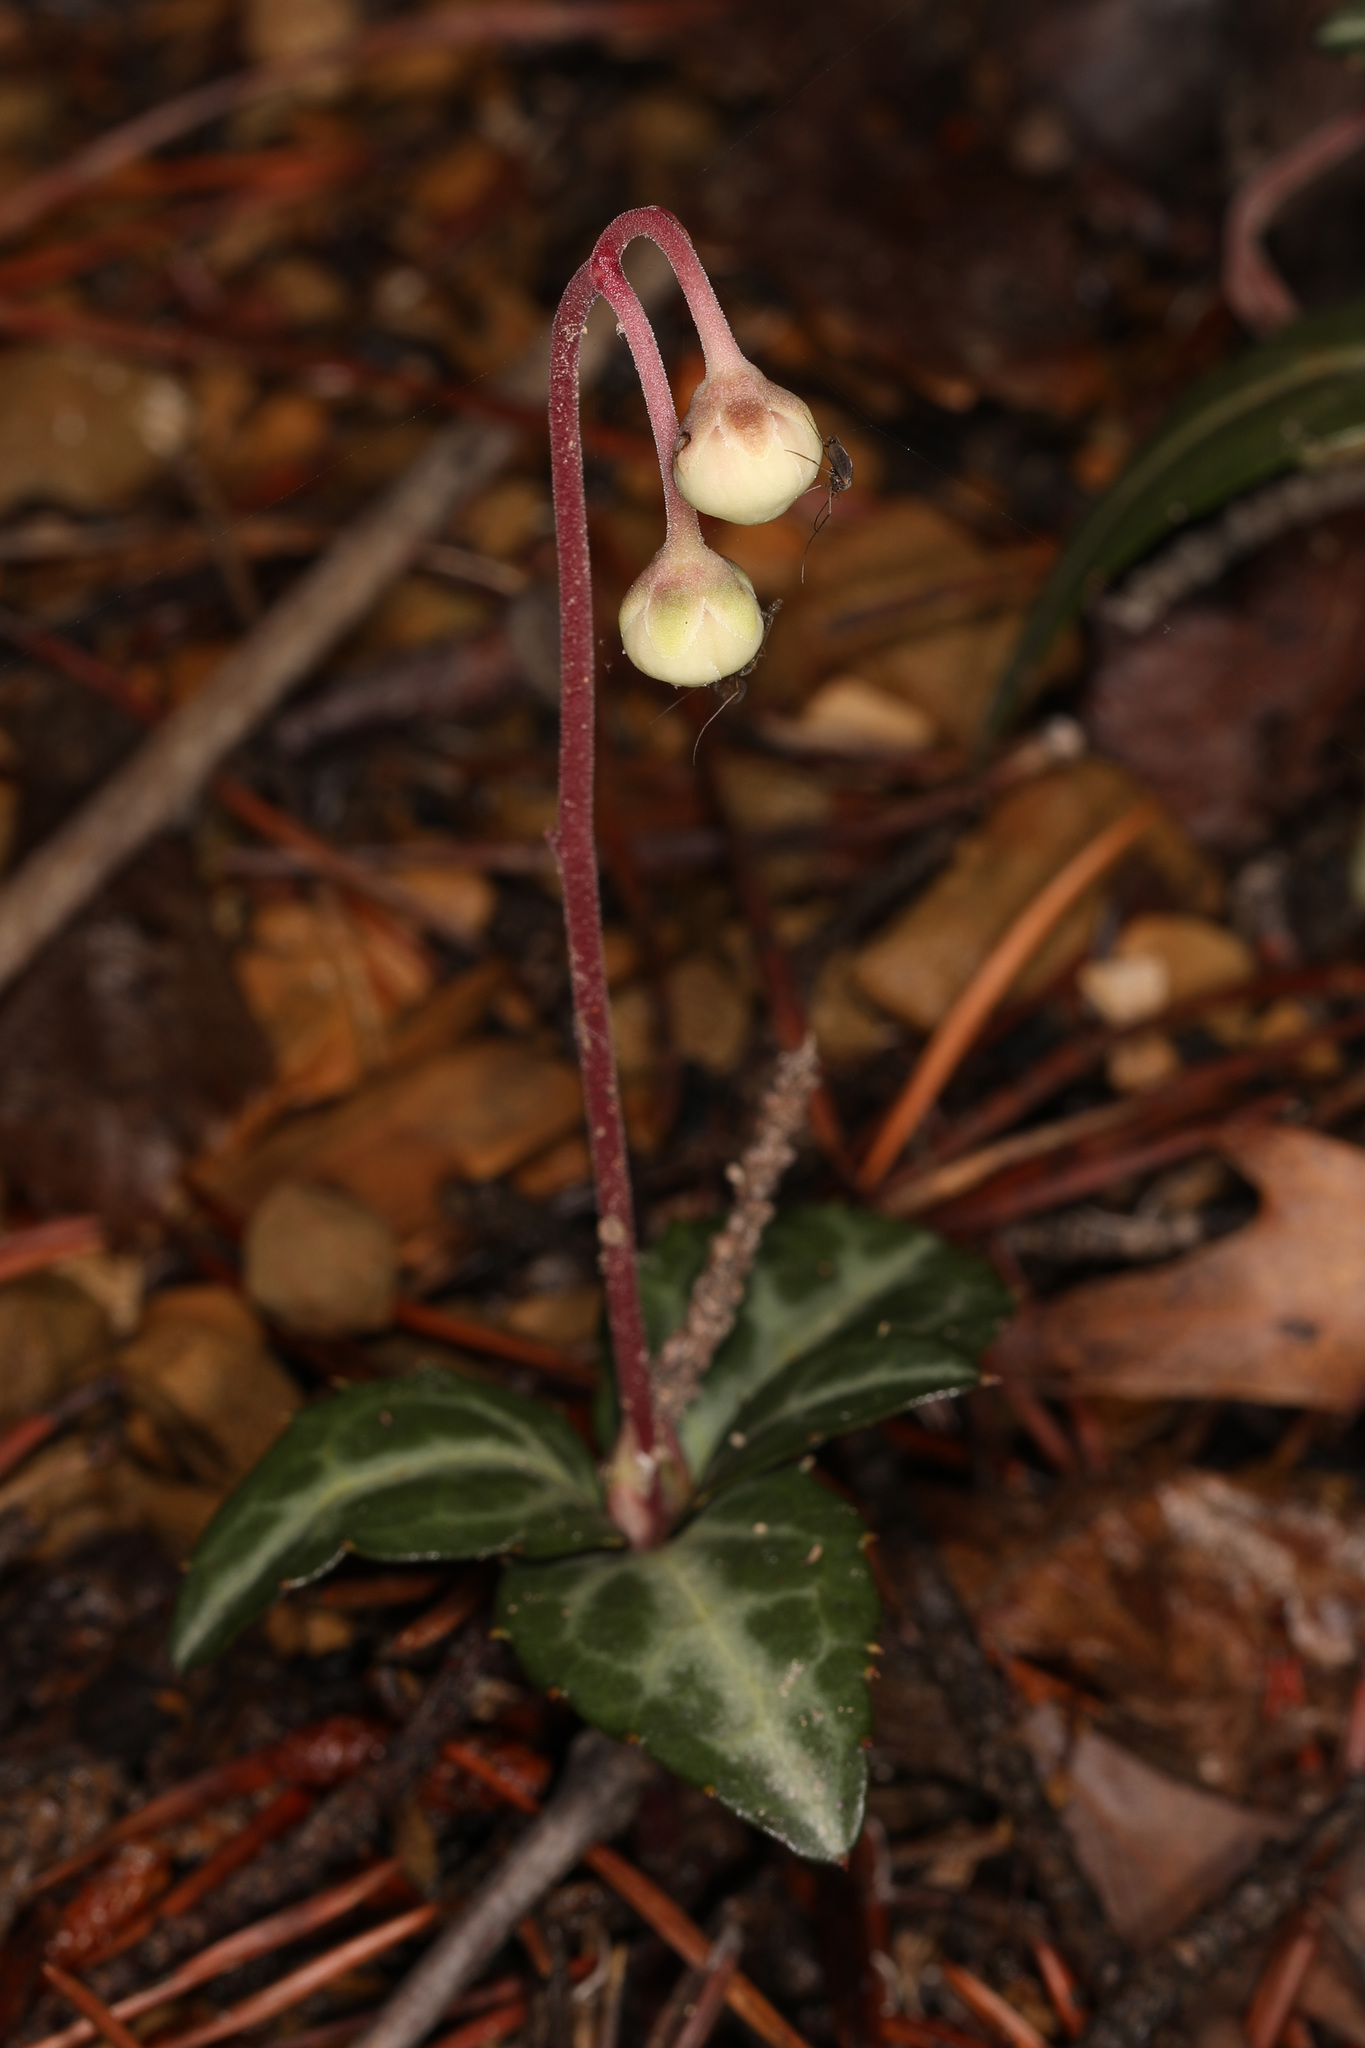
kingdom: Plantae
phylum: Tracheophyta
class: Magnoliopsida
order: Ericales
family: Ericaceae
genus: Chimaphila
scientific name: Chimaphila maculata
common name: Spotted pipsissewa
